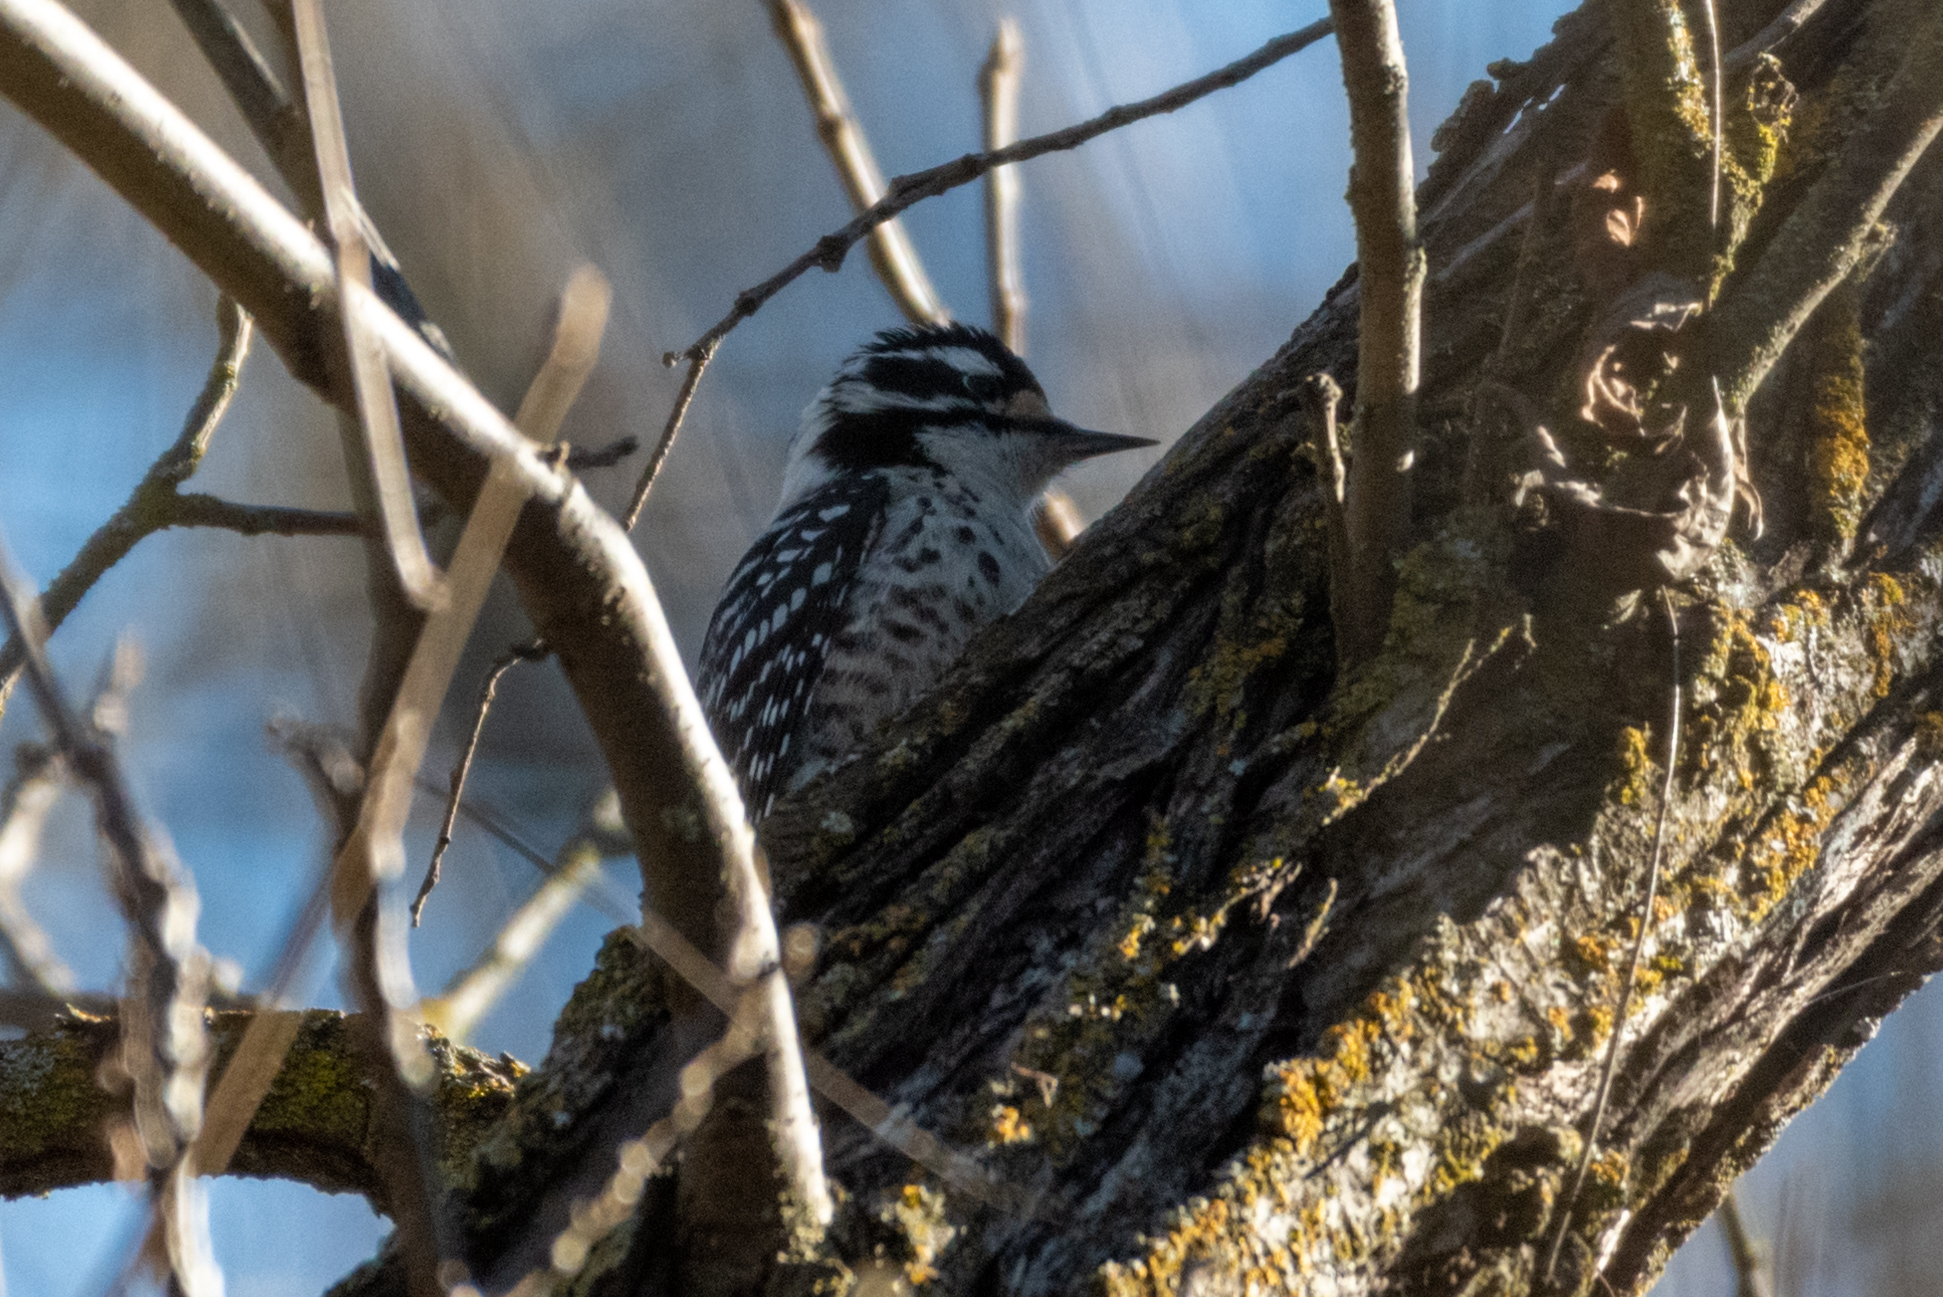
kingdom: Animalia
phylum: Chordata
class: Aves
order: Piciformes
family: Picidae
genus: Dryobates
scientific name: Dryobates nuttallii
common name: Nuttall's woodpecker
